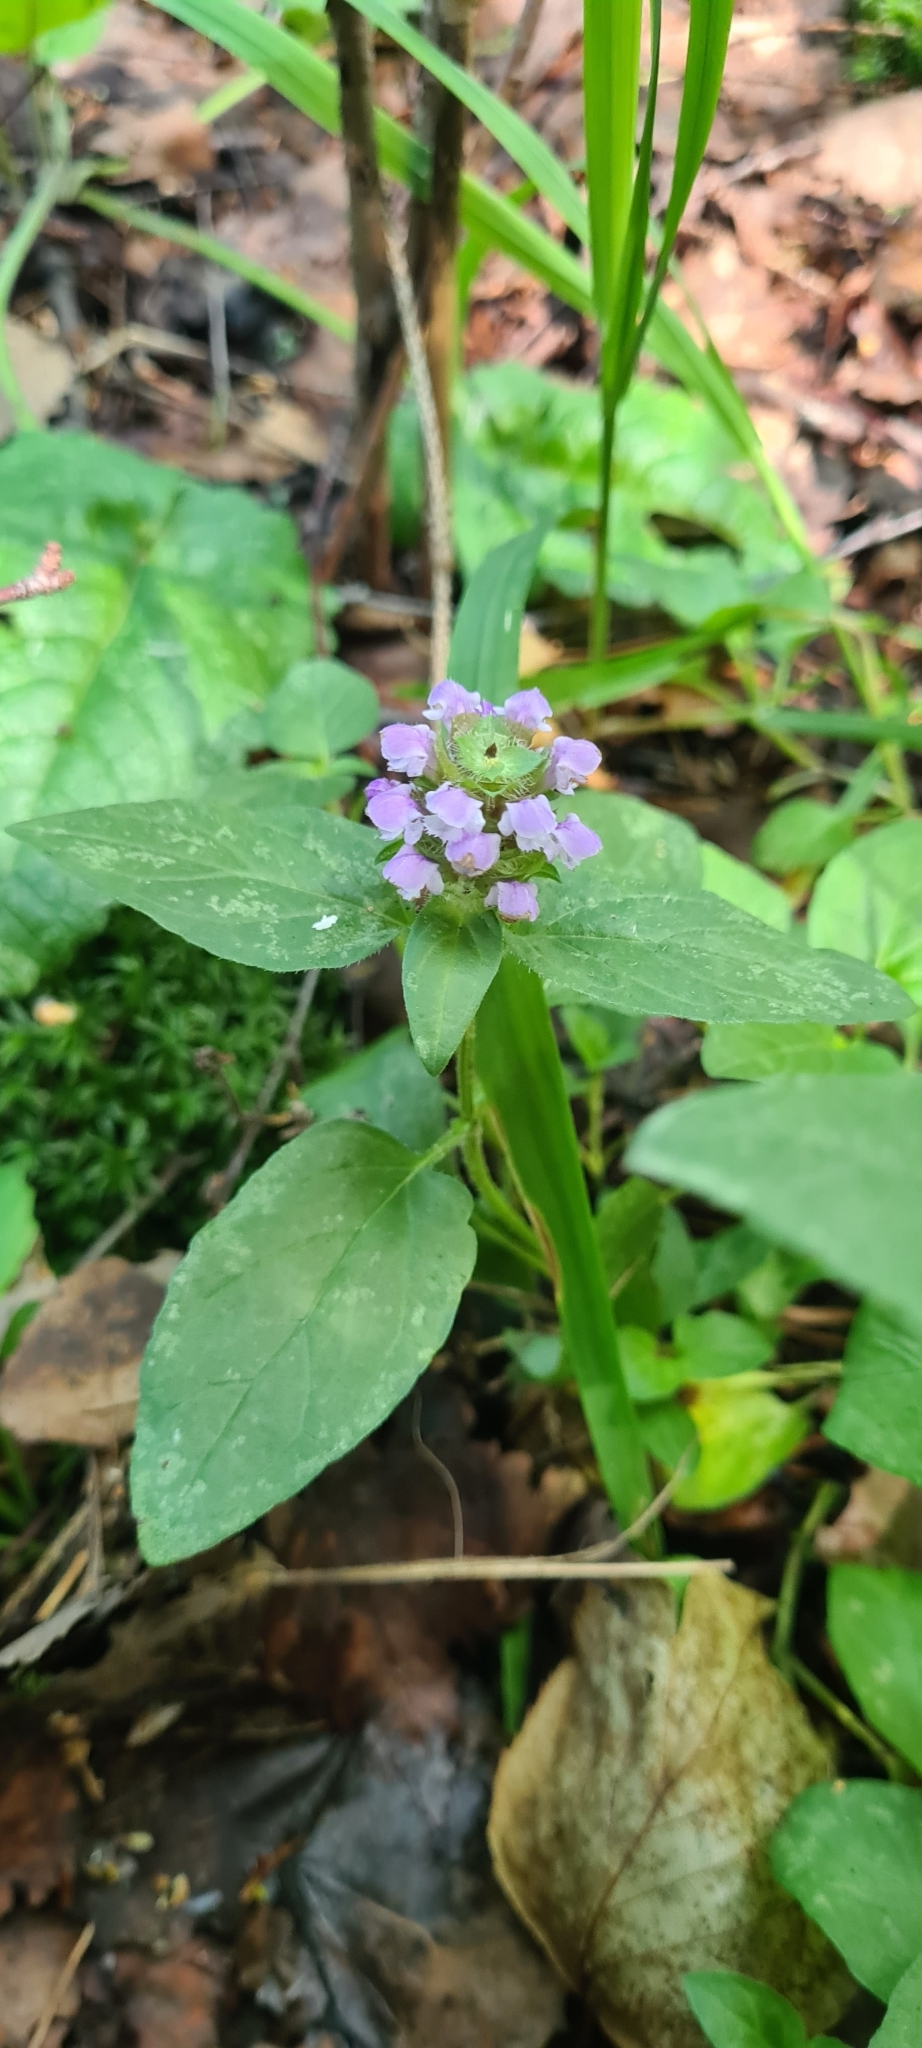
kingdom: Plantae
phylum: Tracheophyta
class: Magnoliopsida
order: Lamiales
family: Lamiaceae
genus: Prunella
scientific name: Prunella vulgaris
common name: Heal-all
